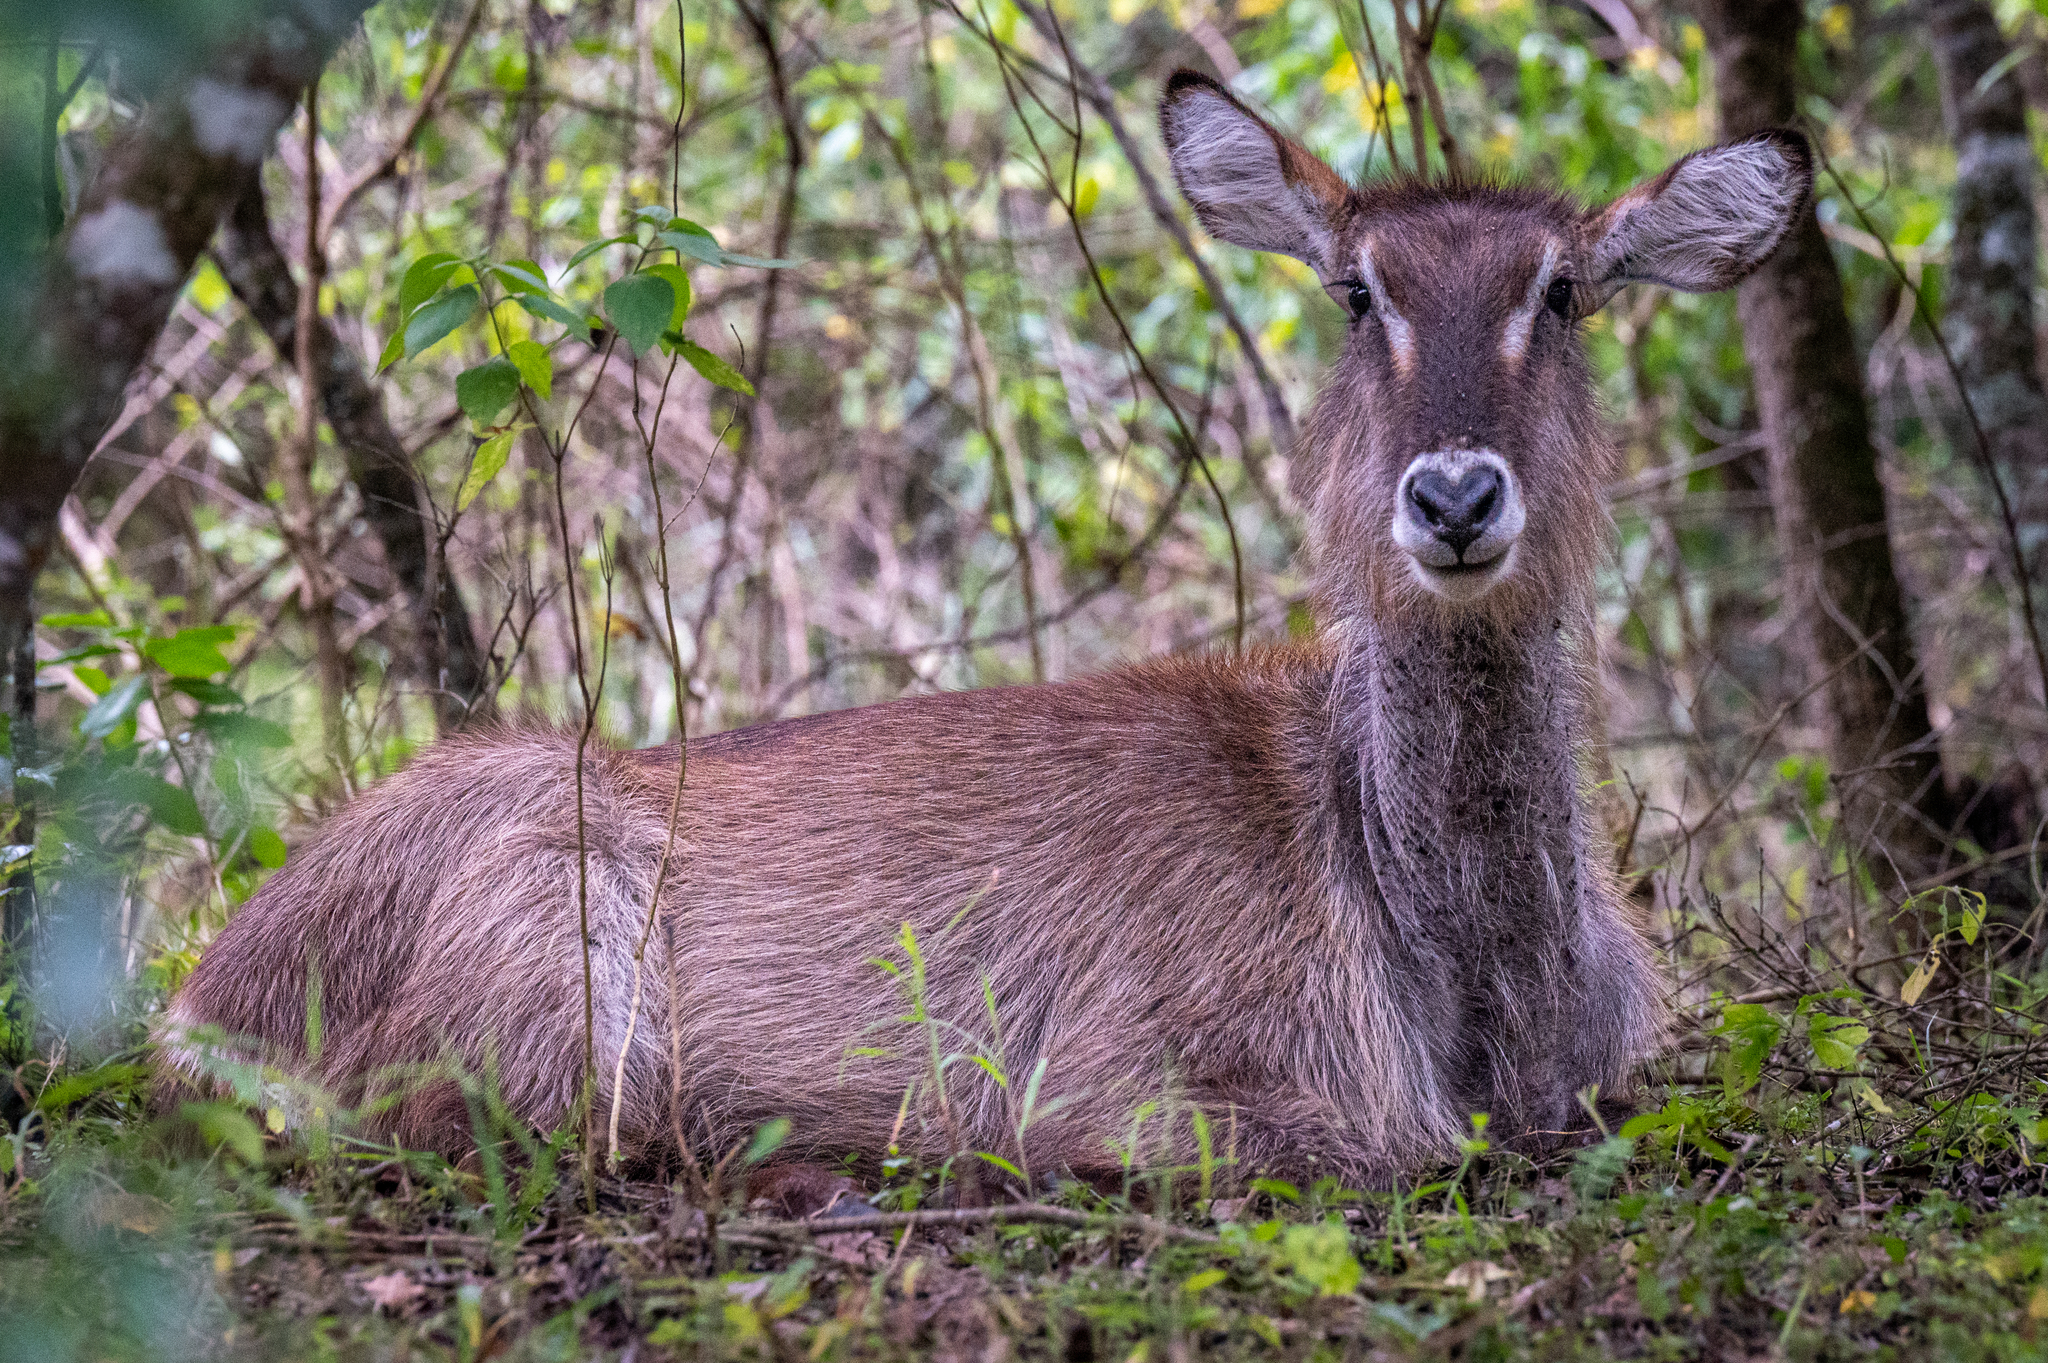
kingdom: Animalia
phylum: Chordata
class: Mammalia
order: Artiodactyla
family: Bovidae
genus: Kobus
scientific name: Kobus ellipsiprymnus
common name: Waterbuck
